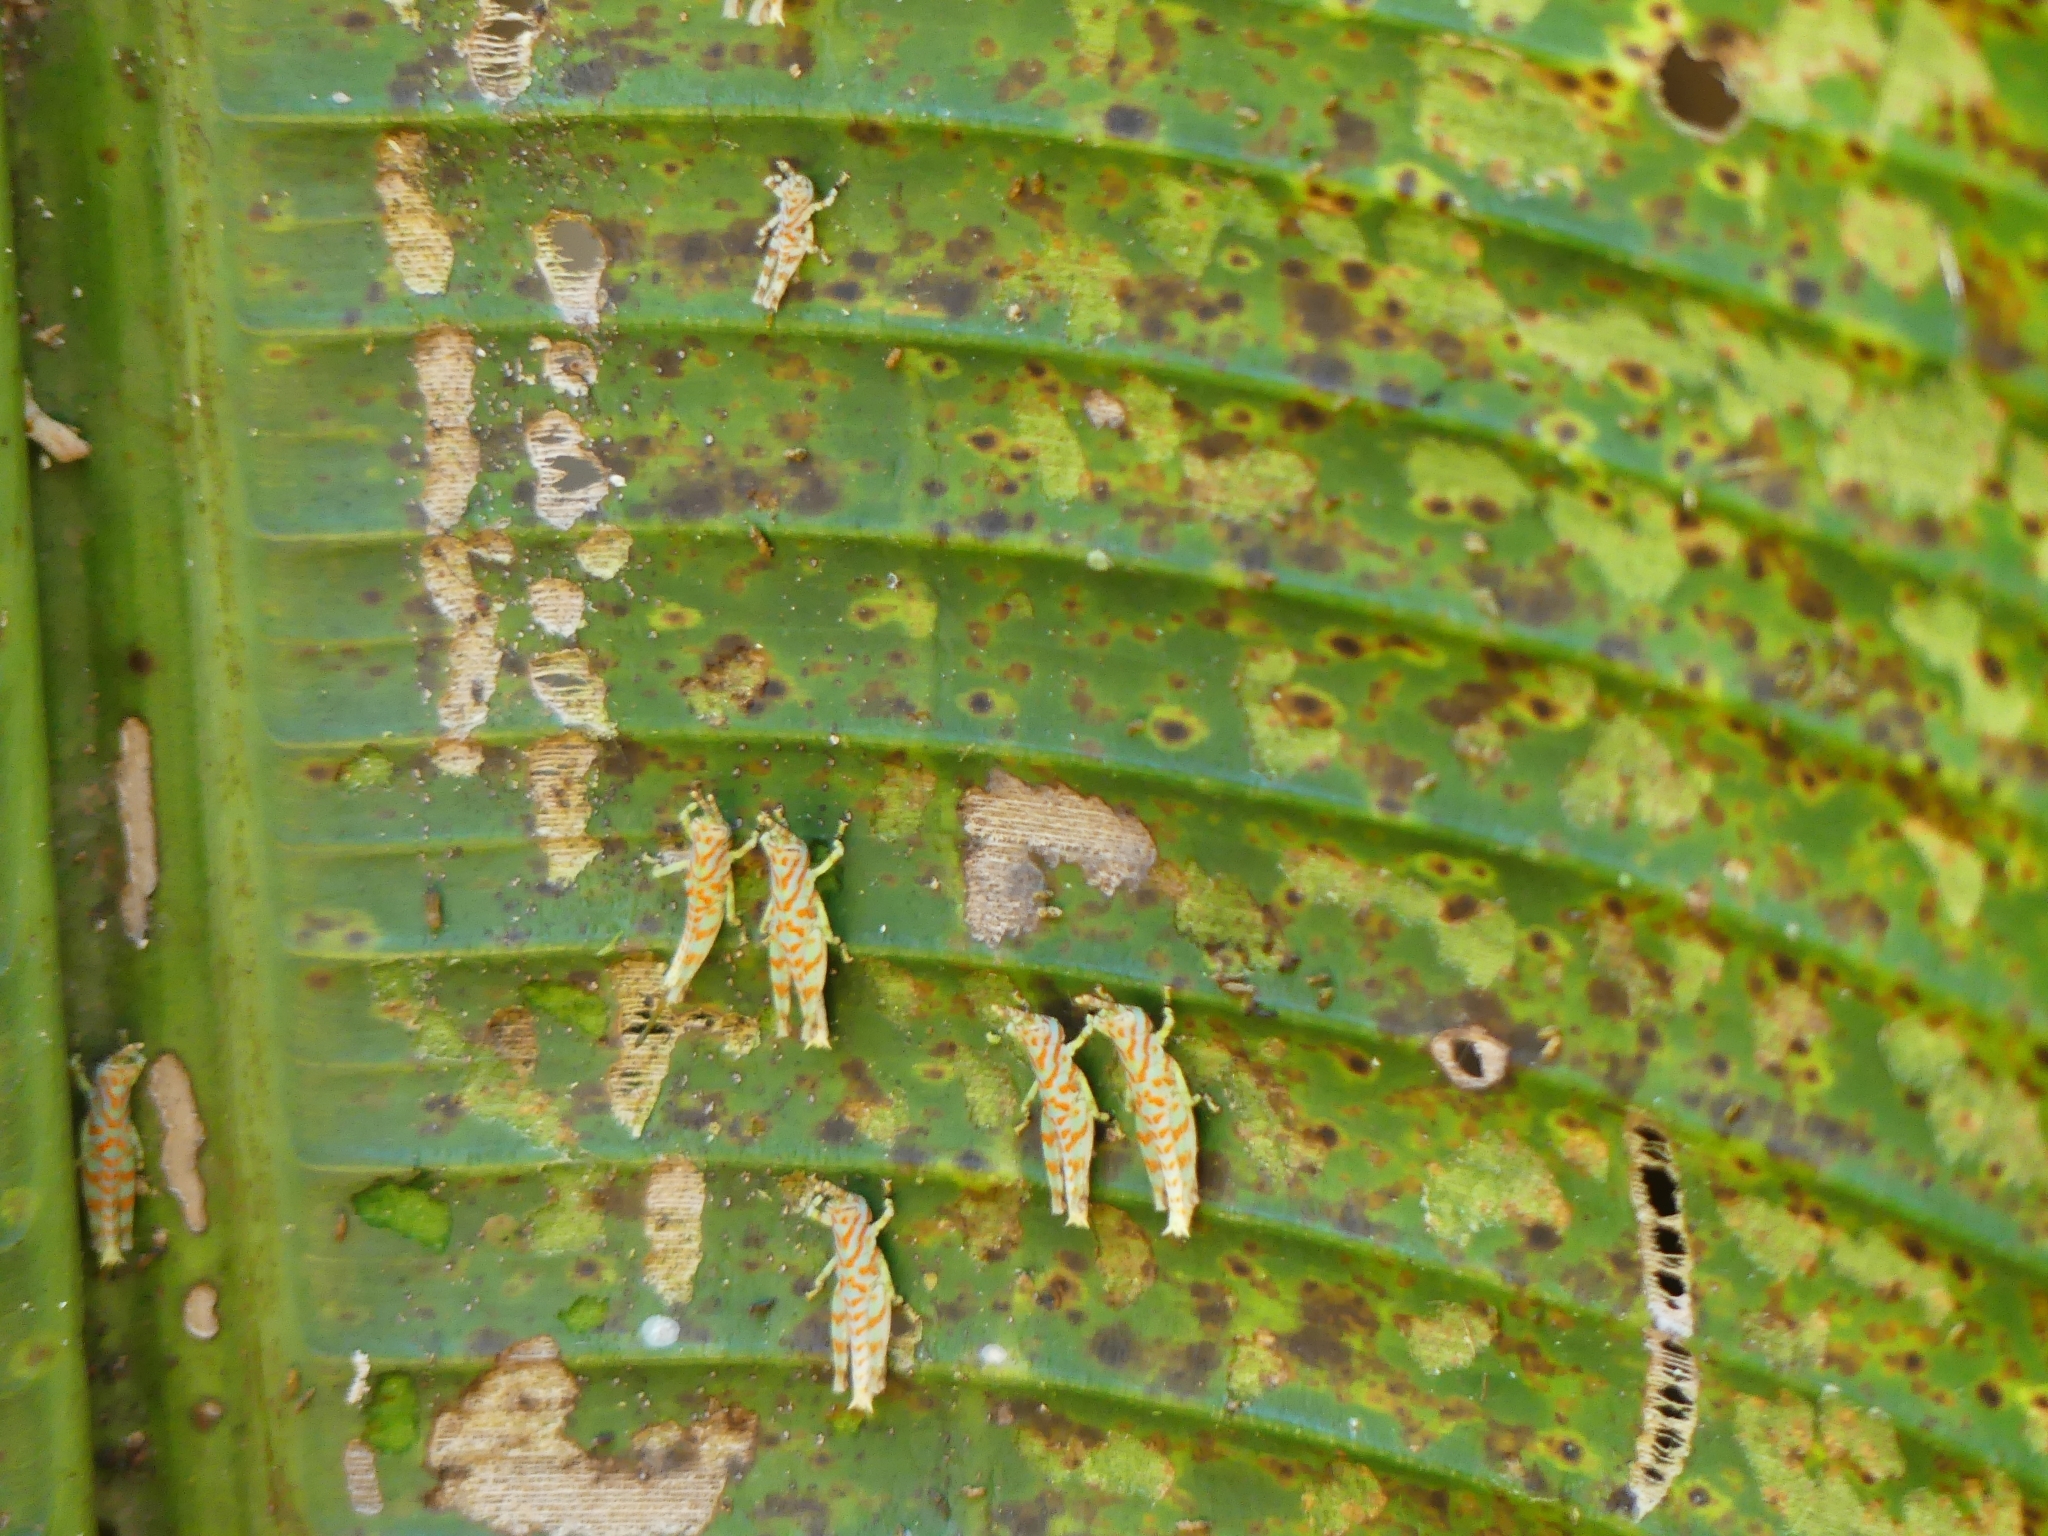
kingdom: Animalia
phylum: Arthropoda
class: Insecta
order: Orthoptera
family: Acrididae
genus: Cornops
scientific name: Cornops
